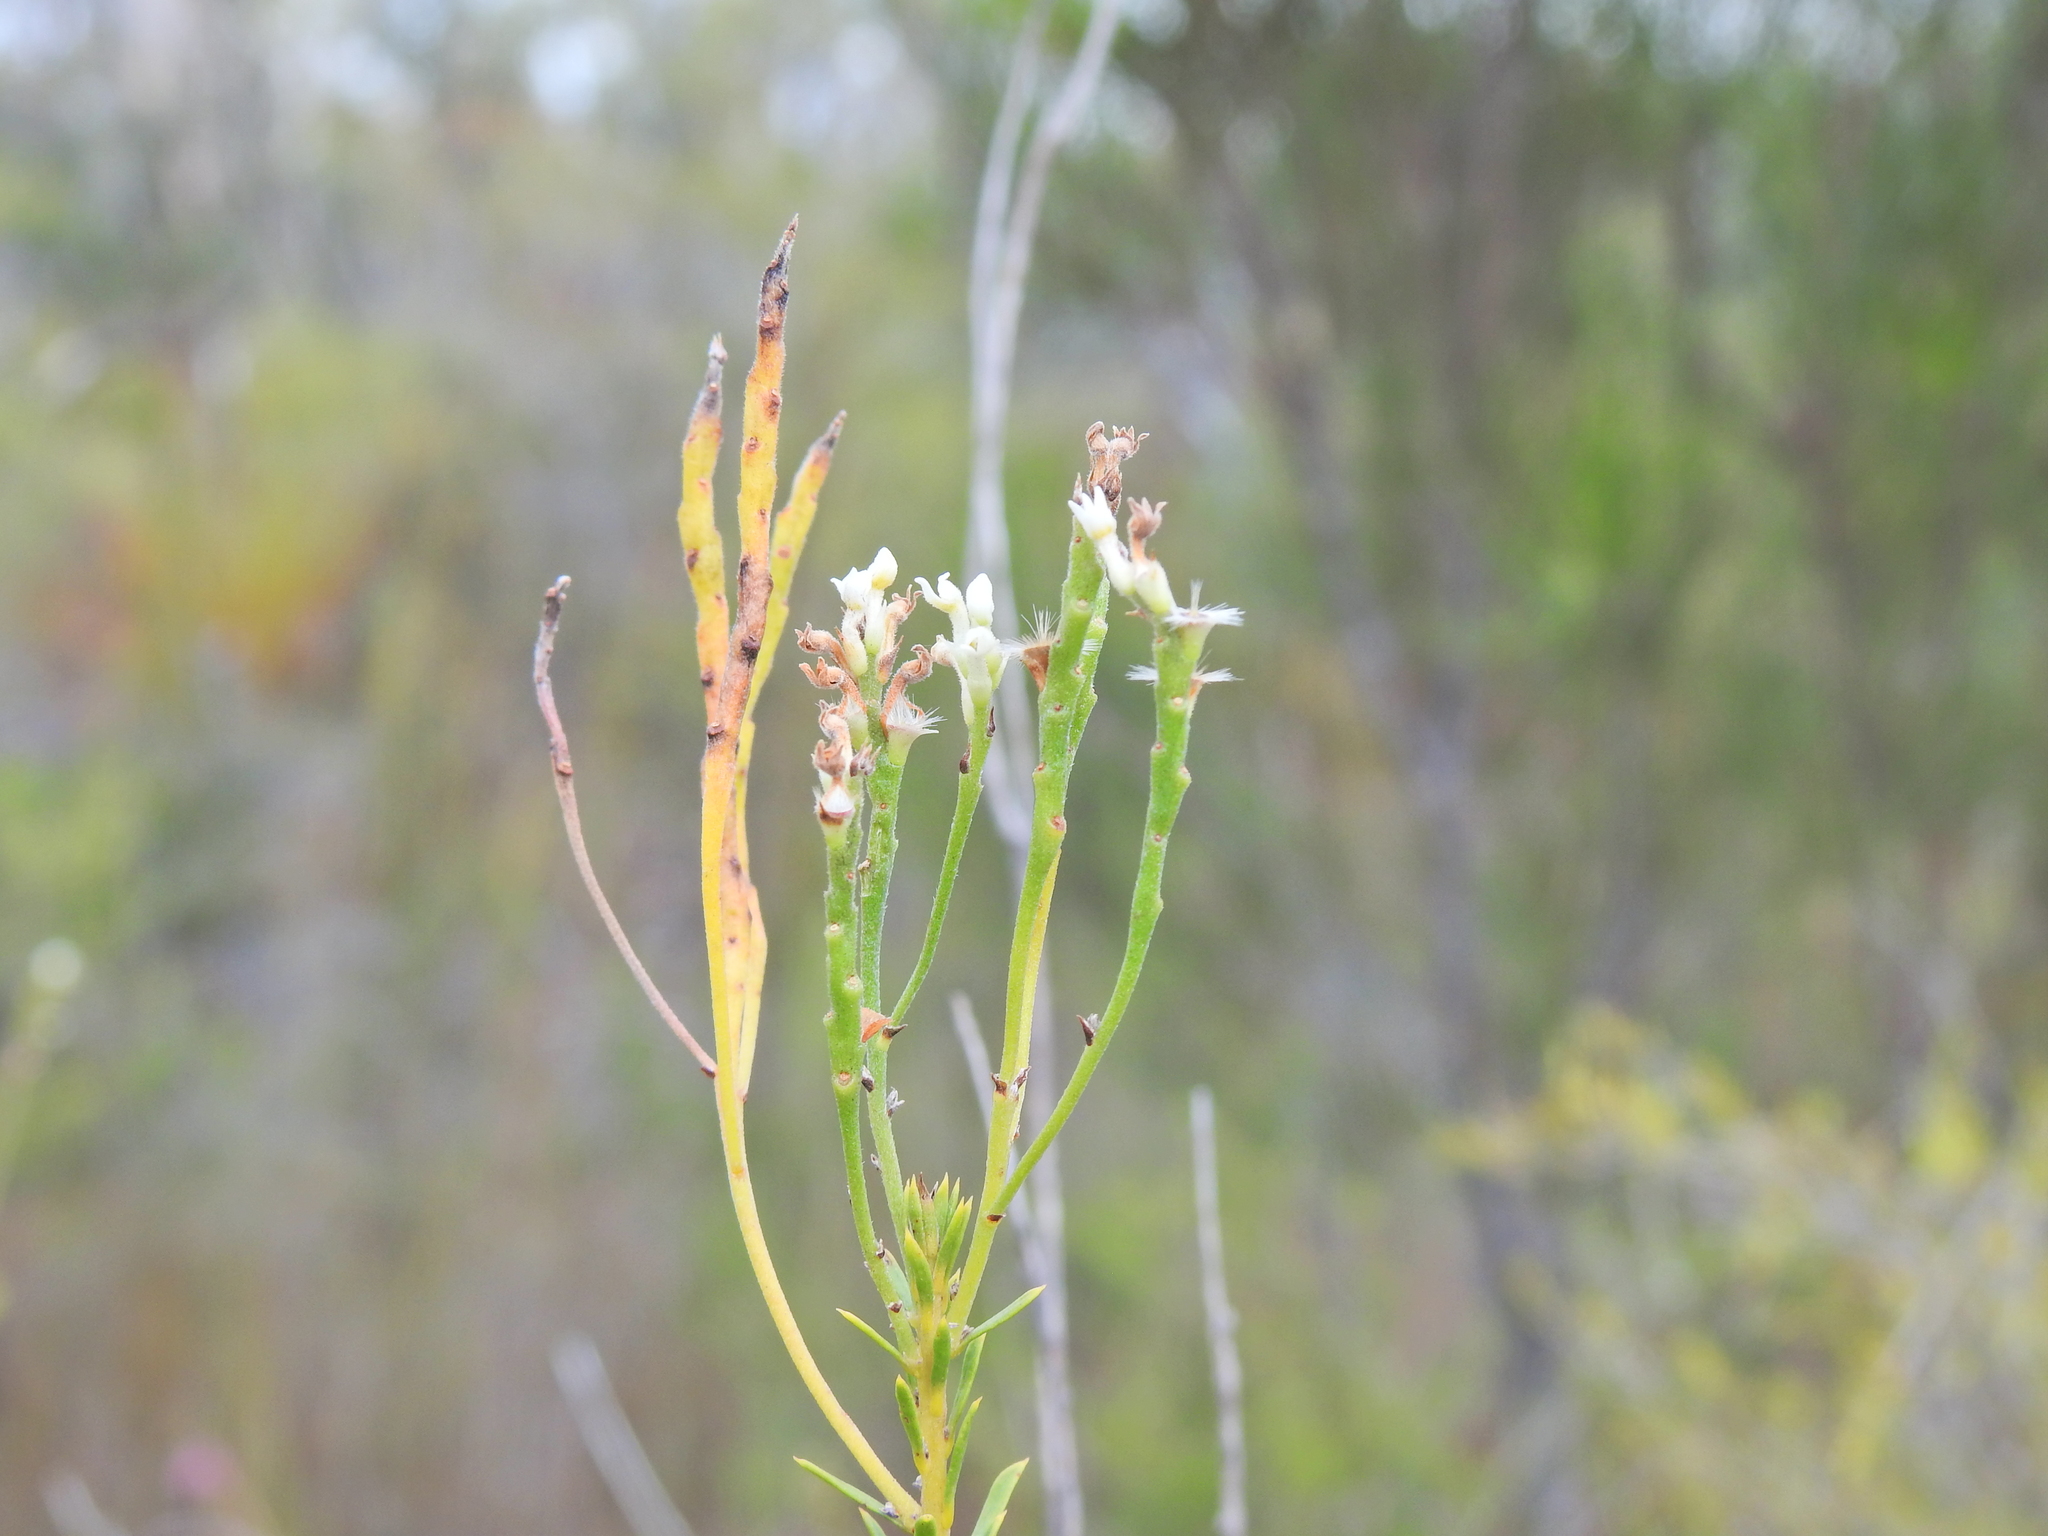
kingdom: Plantae
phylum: Tracheophyta
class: Magnoliopsida
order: Proteales
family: Proteaceae
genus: Conospermum
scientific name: Conospermum taxifolium
